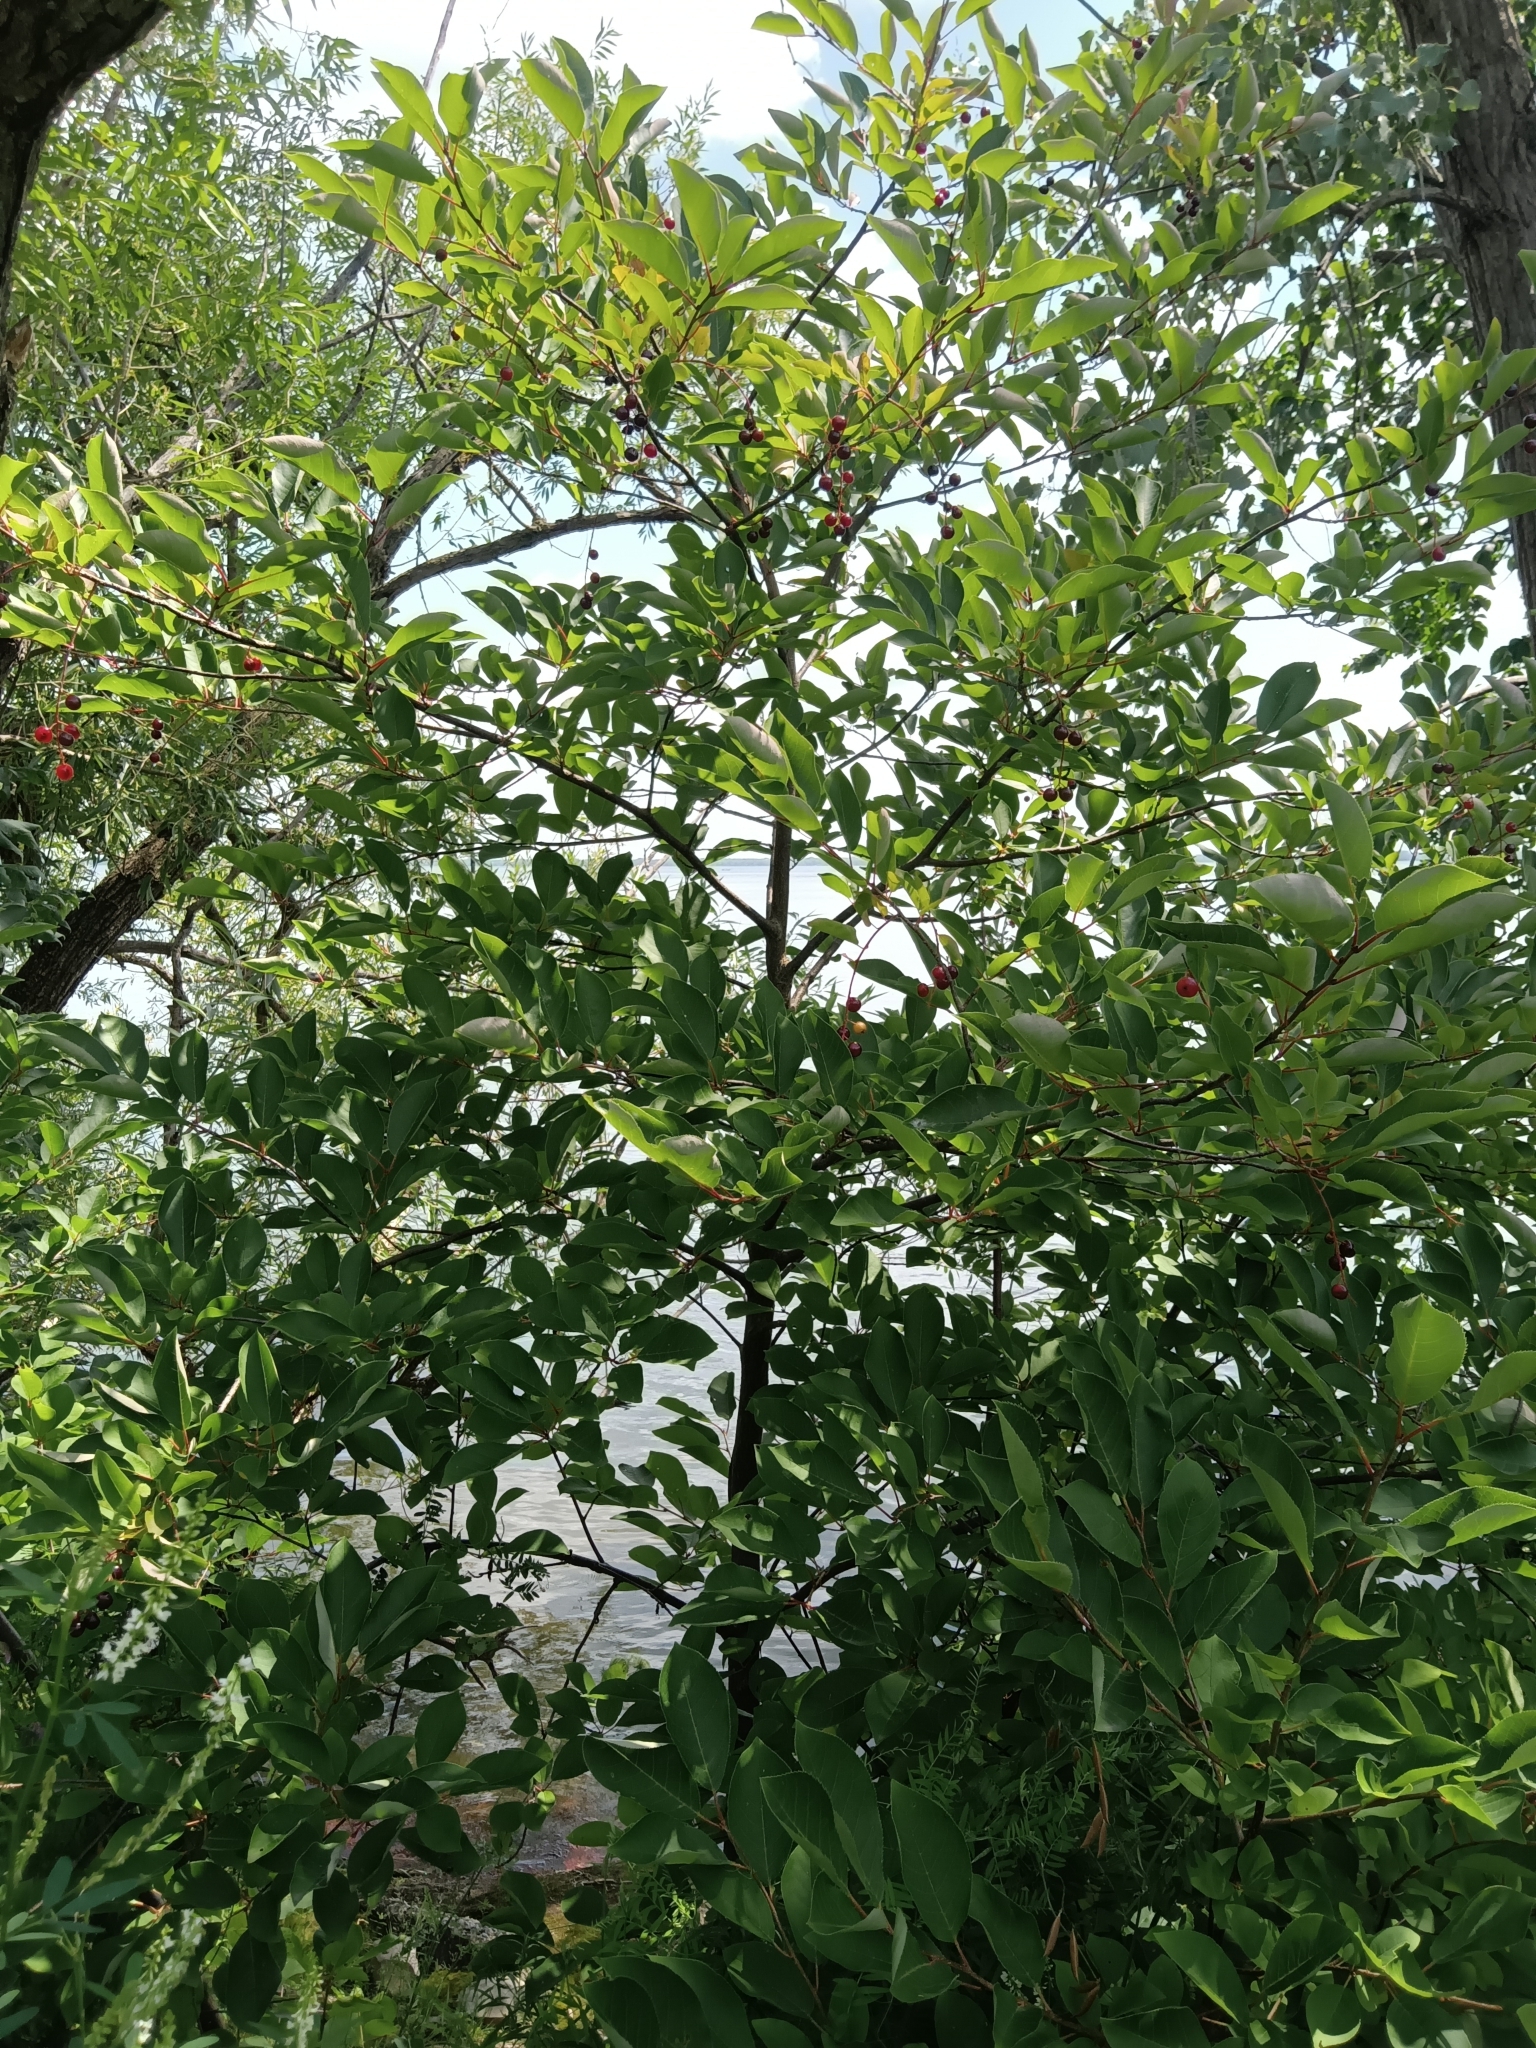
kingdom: Plantae
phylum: Tracheophyta
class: Magnoliopsida
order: Rosales
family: Rosaceae
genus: Prunus
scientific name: Prunus virginiana
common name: Chokecherry
